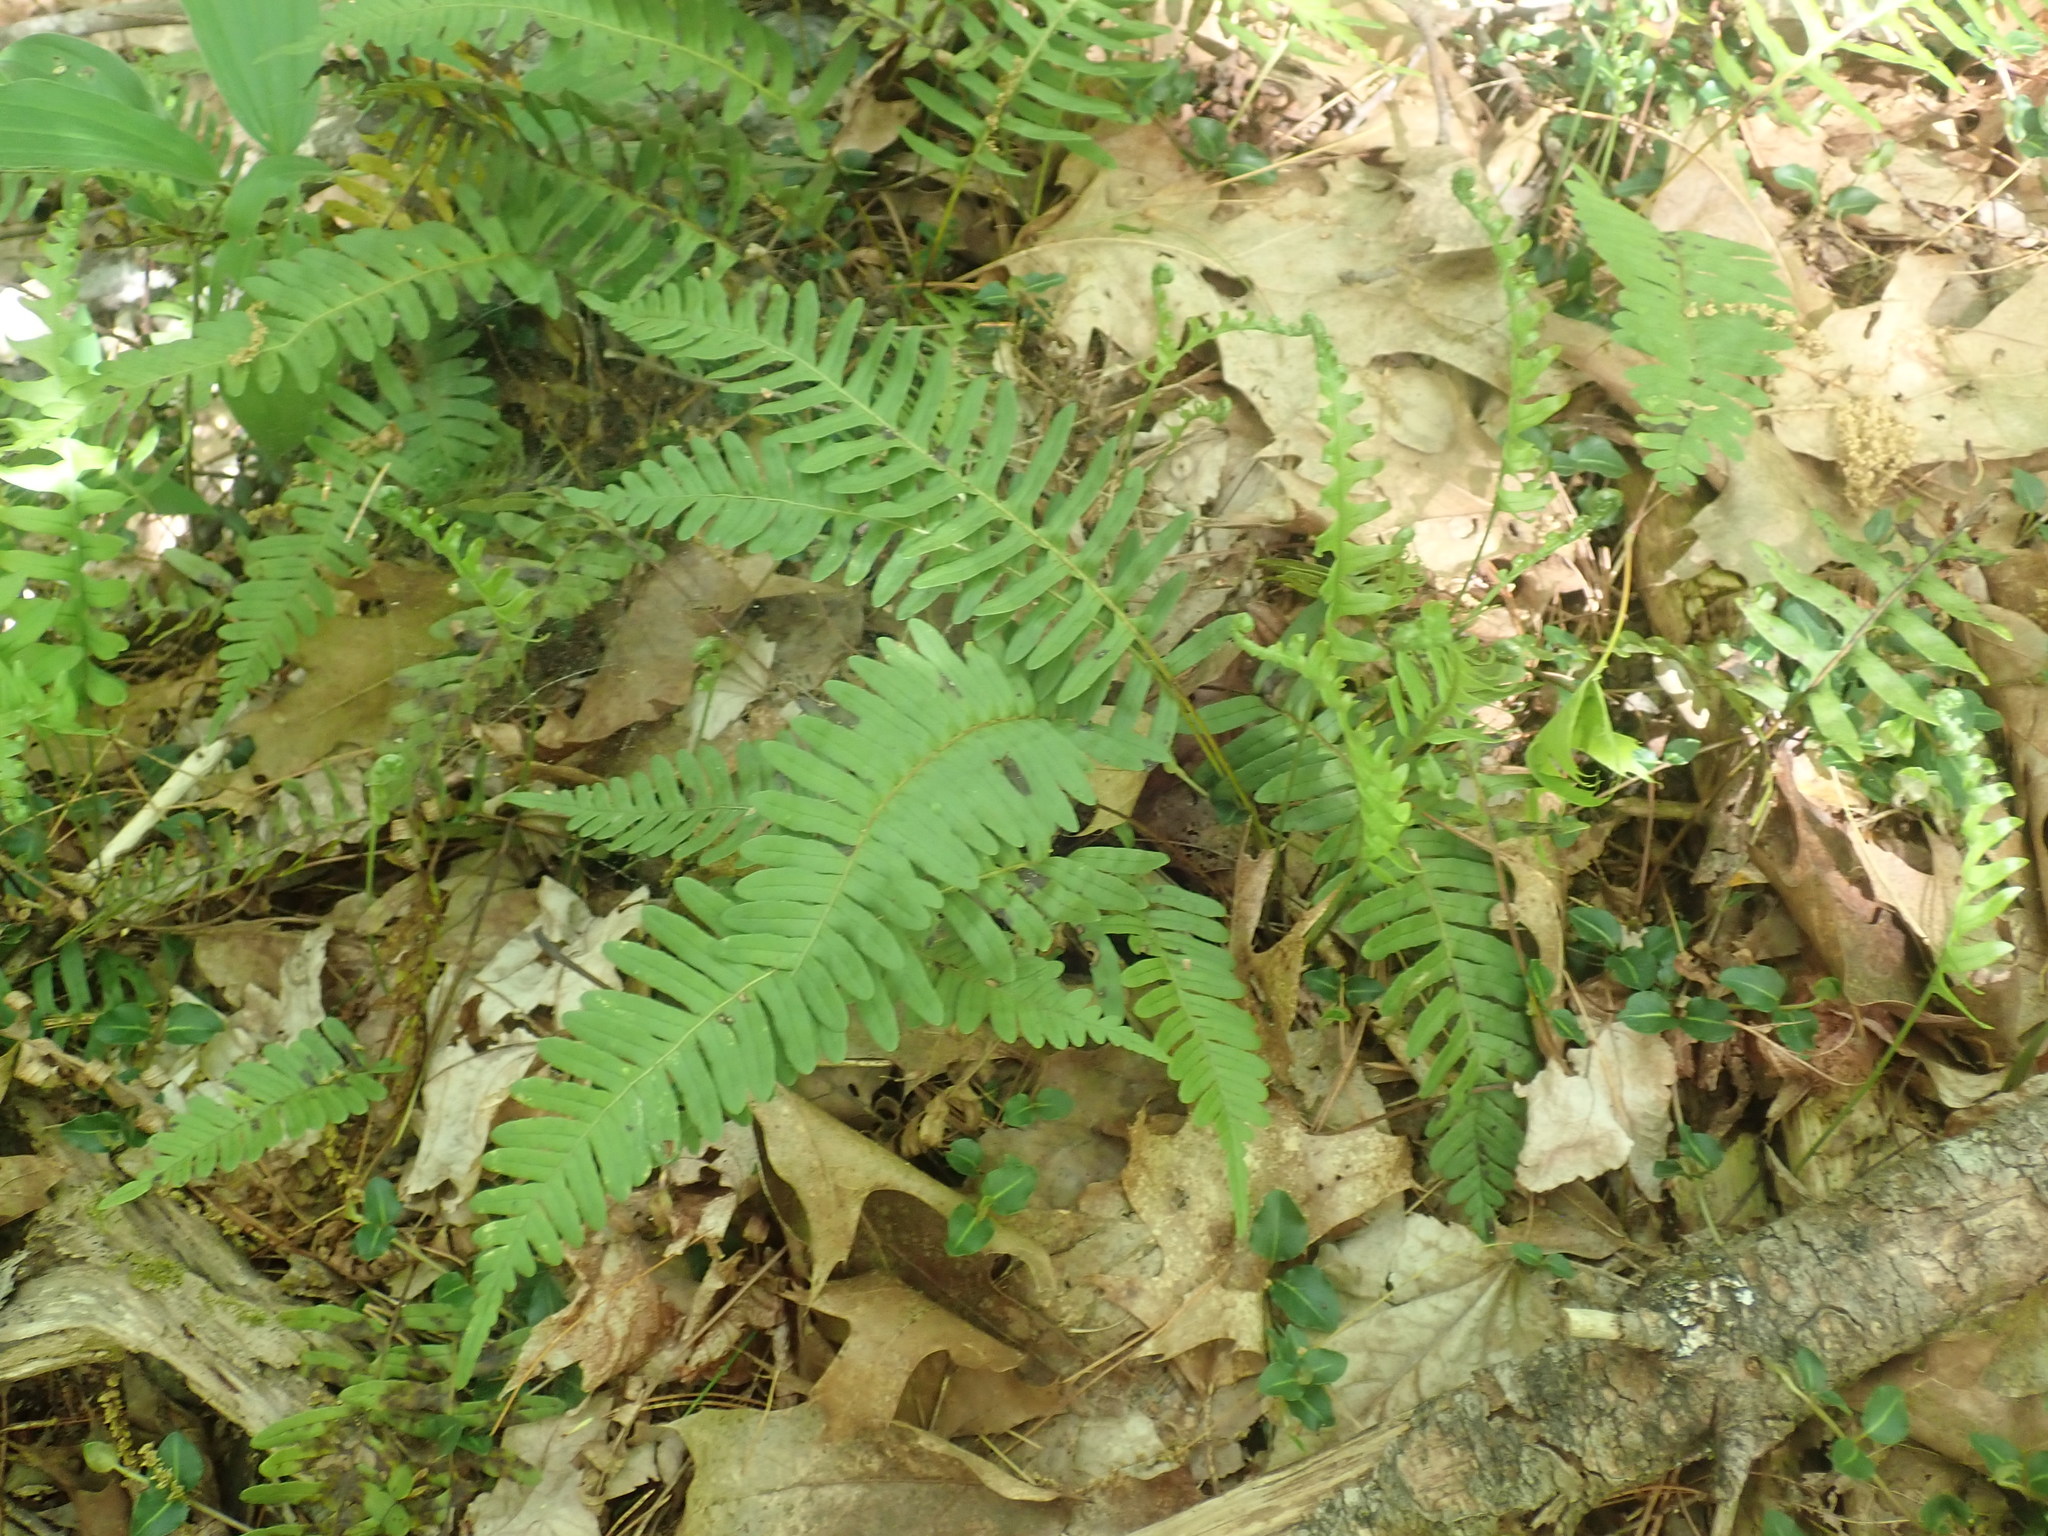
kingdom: Plantae
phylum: Tracheophyta
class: Polypodiopsida
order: Polypodiales
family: Polypodiaceae
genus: Polypodium
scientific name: Polypodium
